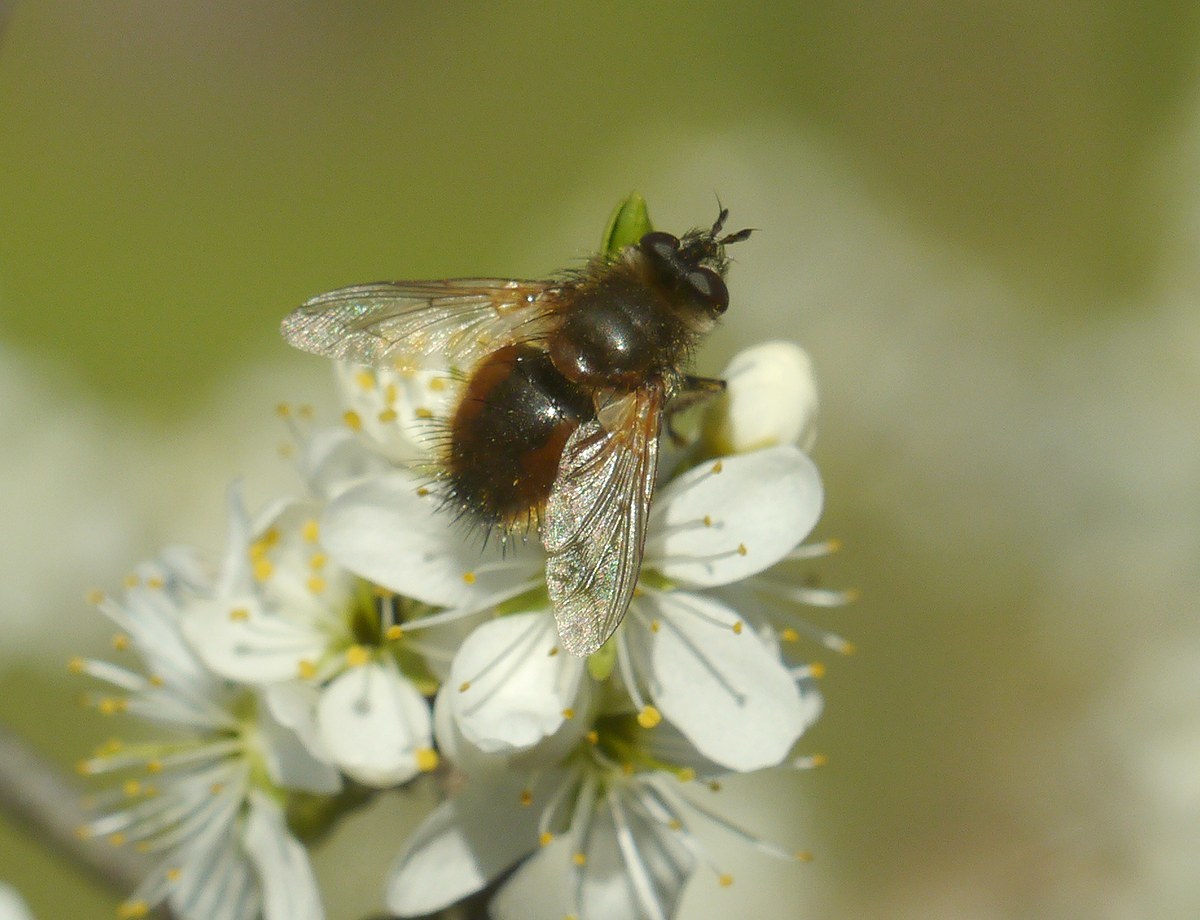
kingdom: Animalia
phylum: Arthropoda
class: Insecta
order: Diptera
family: Tachinidae
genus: Tachina
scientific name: Tachina lurida
